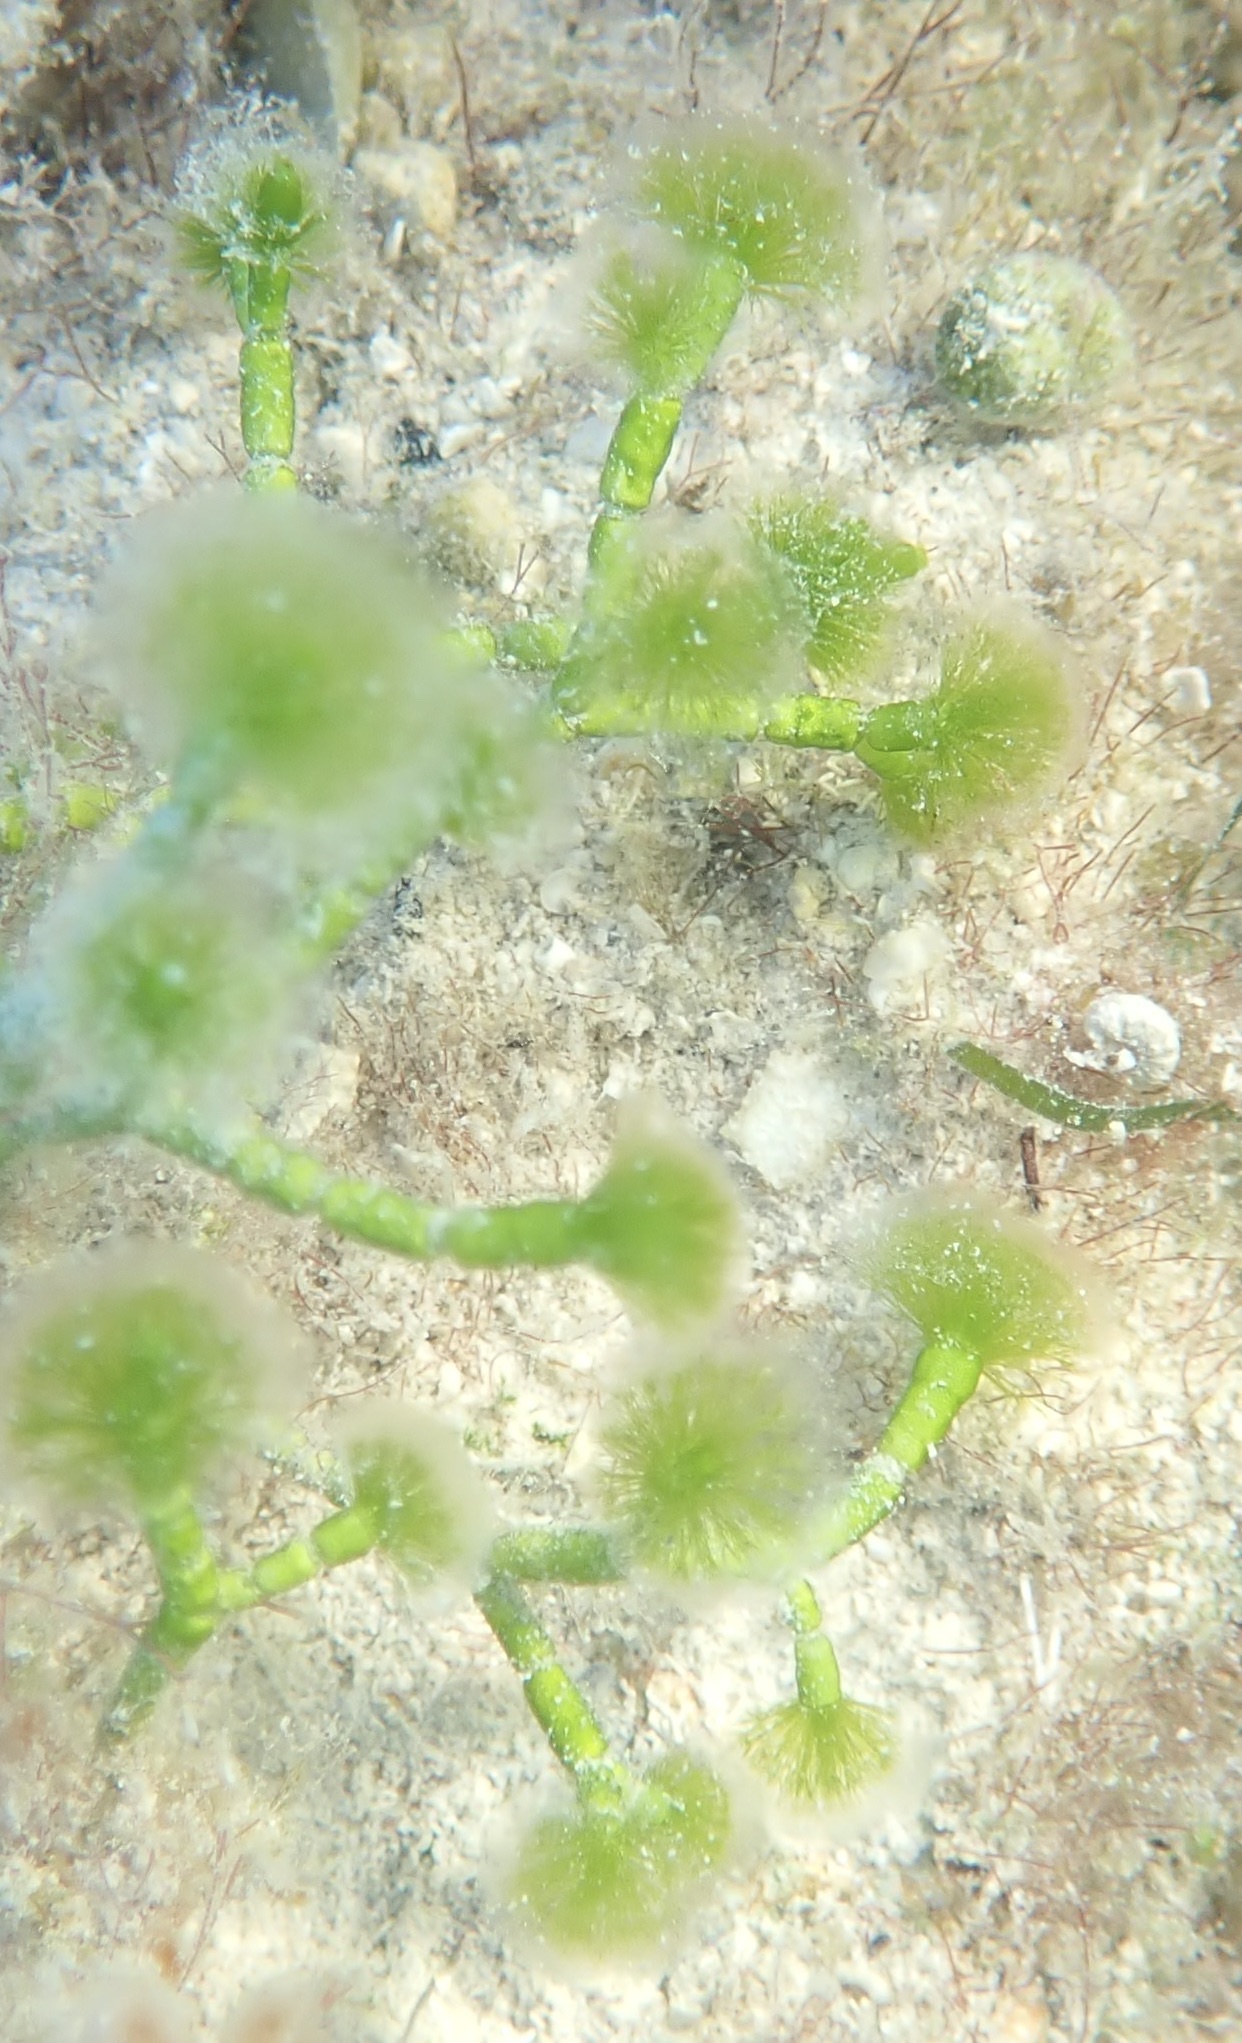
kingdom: Plantae
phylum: Chlorophyta
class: Ulvophyceae
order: Dasycladales
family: Dasycladaceae
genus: Cymopolia
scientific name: Cymopolia barbata
